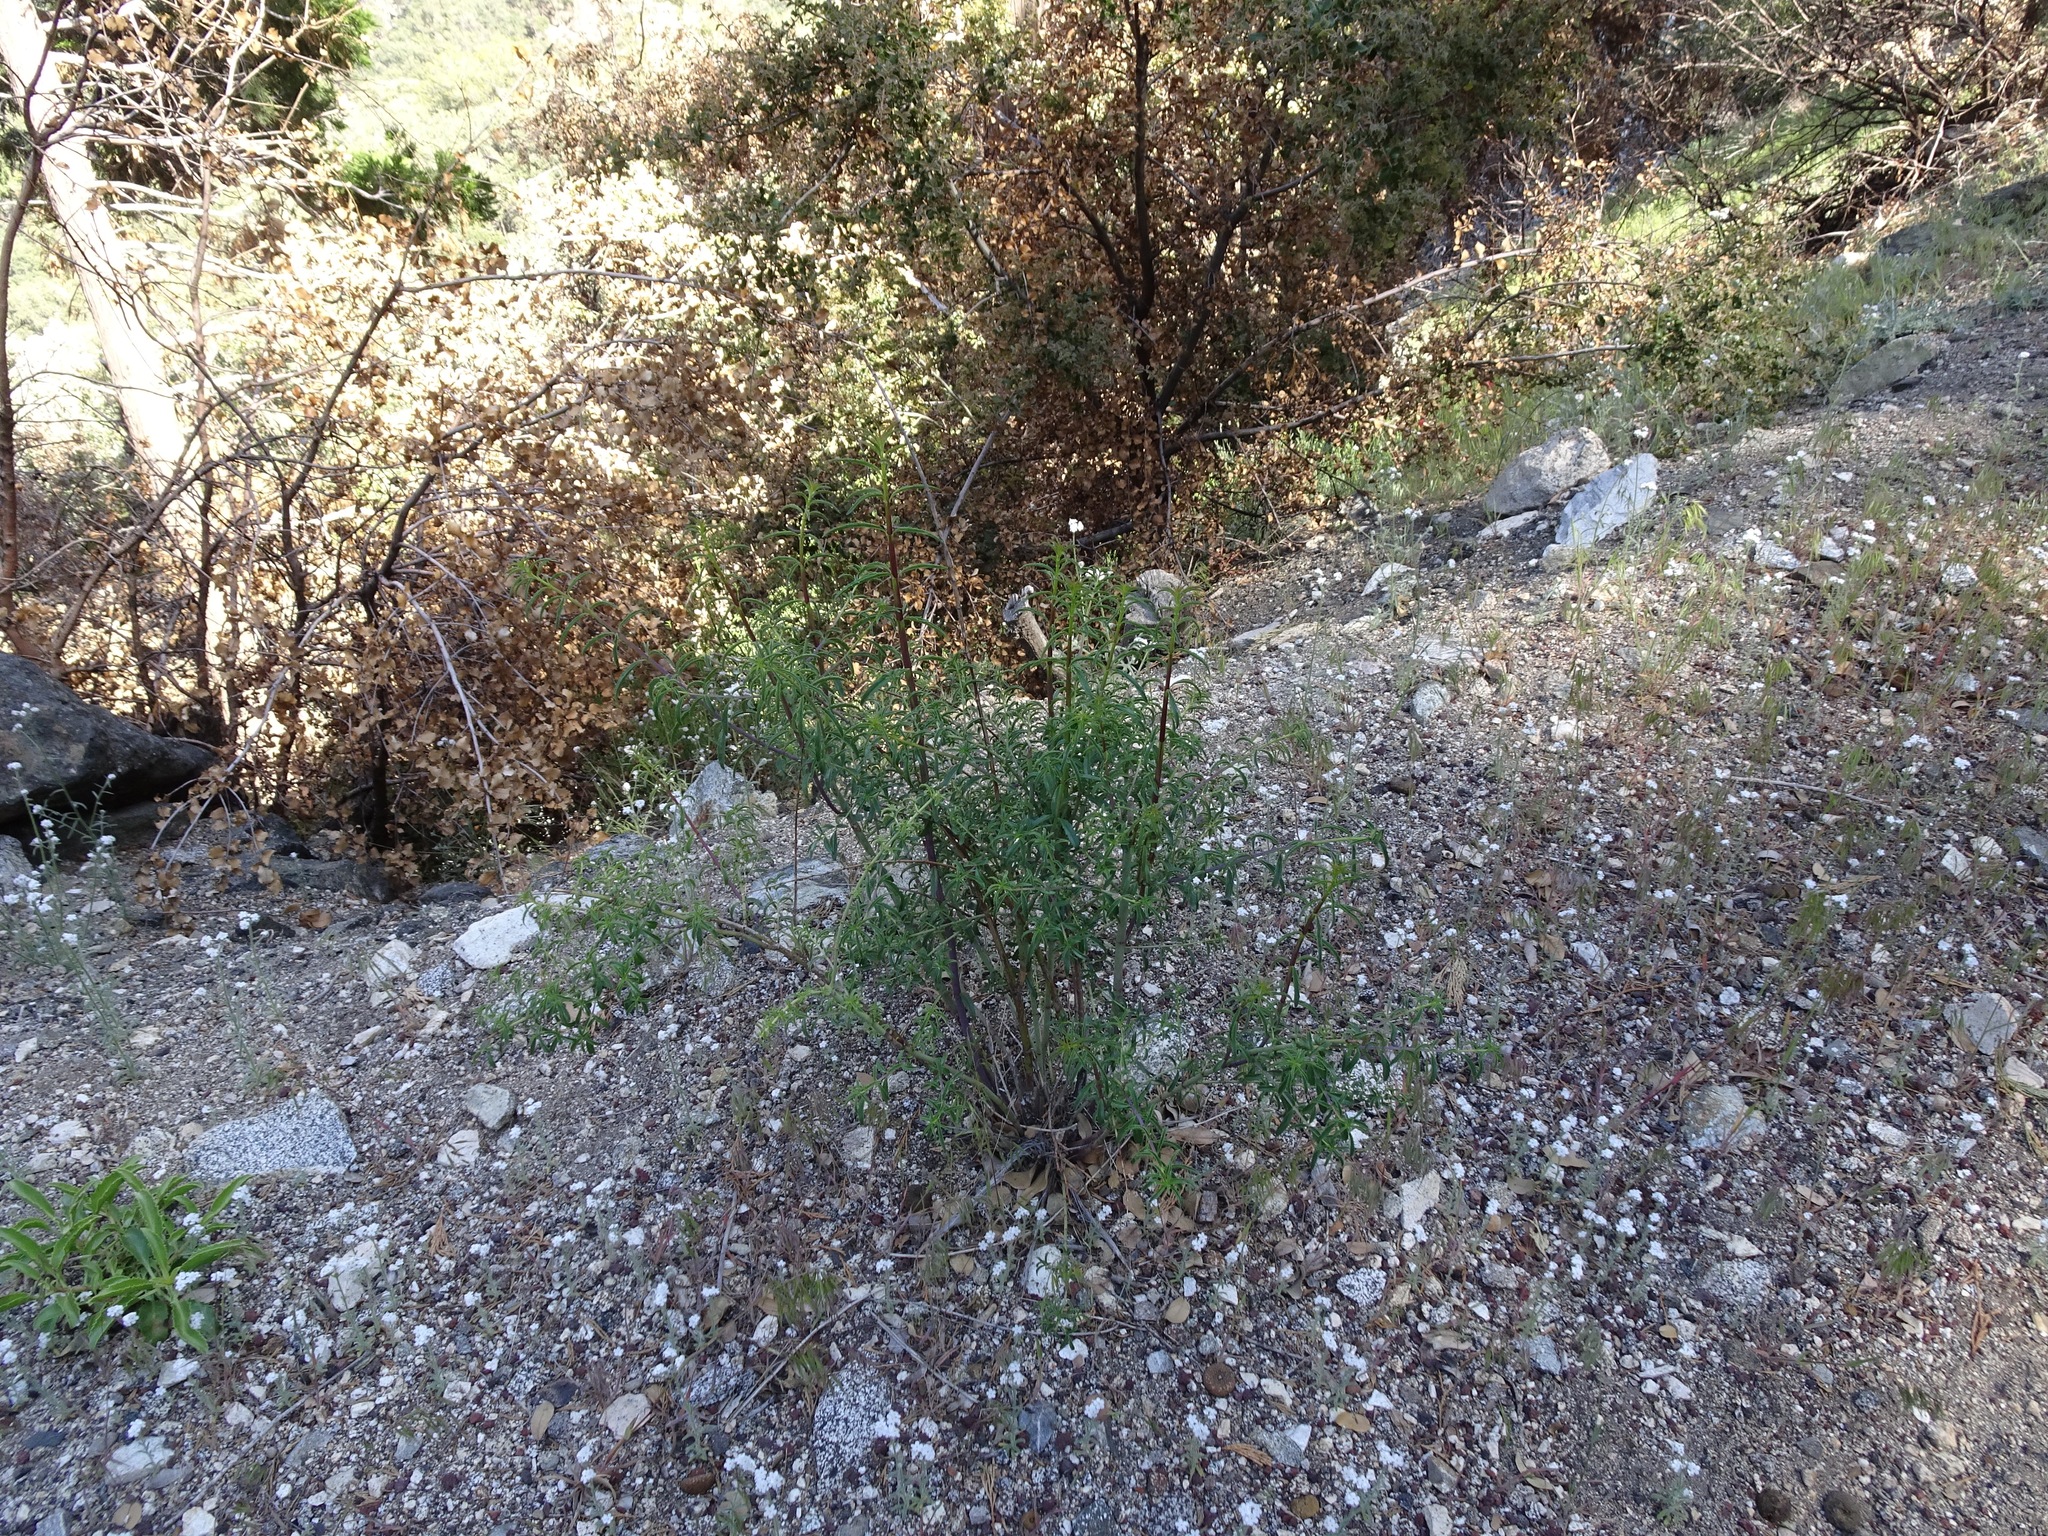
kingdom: Plantae
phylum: Tracheophyta
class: Magnoliopsida
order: Lamiales
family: Plantaginaceae
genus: Keckiella
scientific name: Keckiella ternata
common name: Scarlet keckiella
